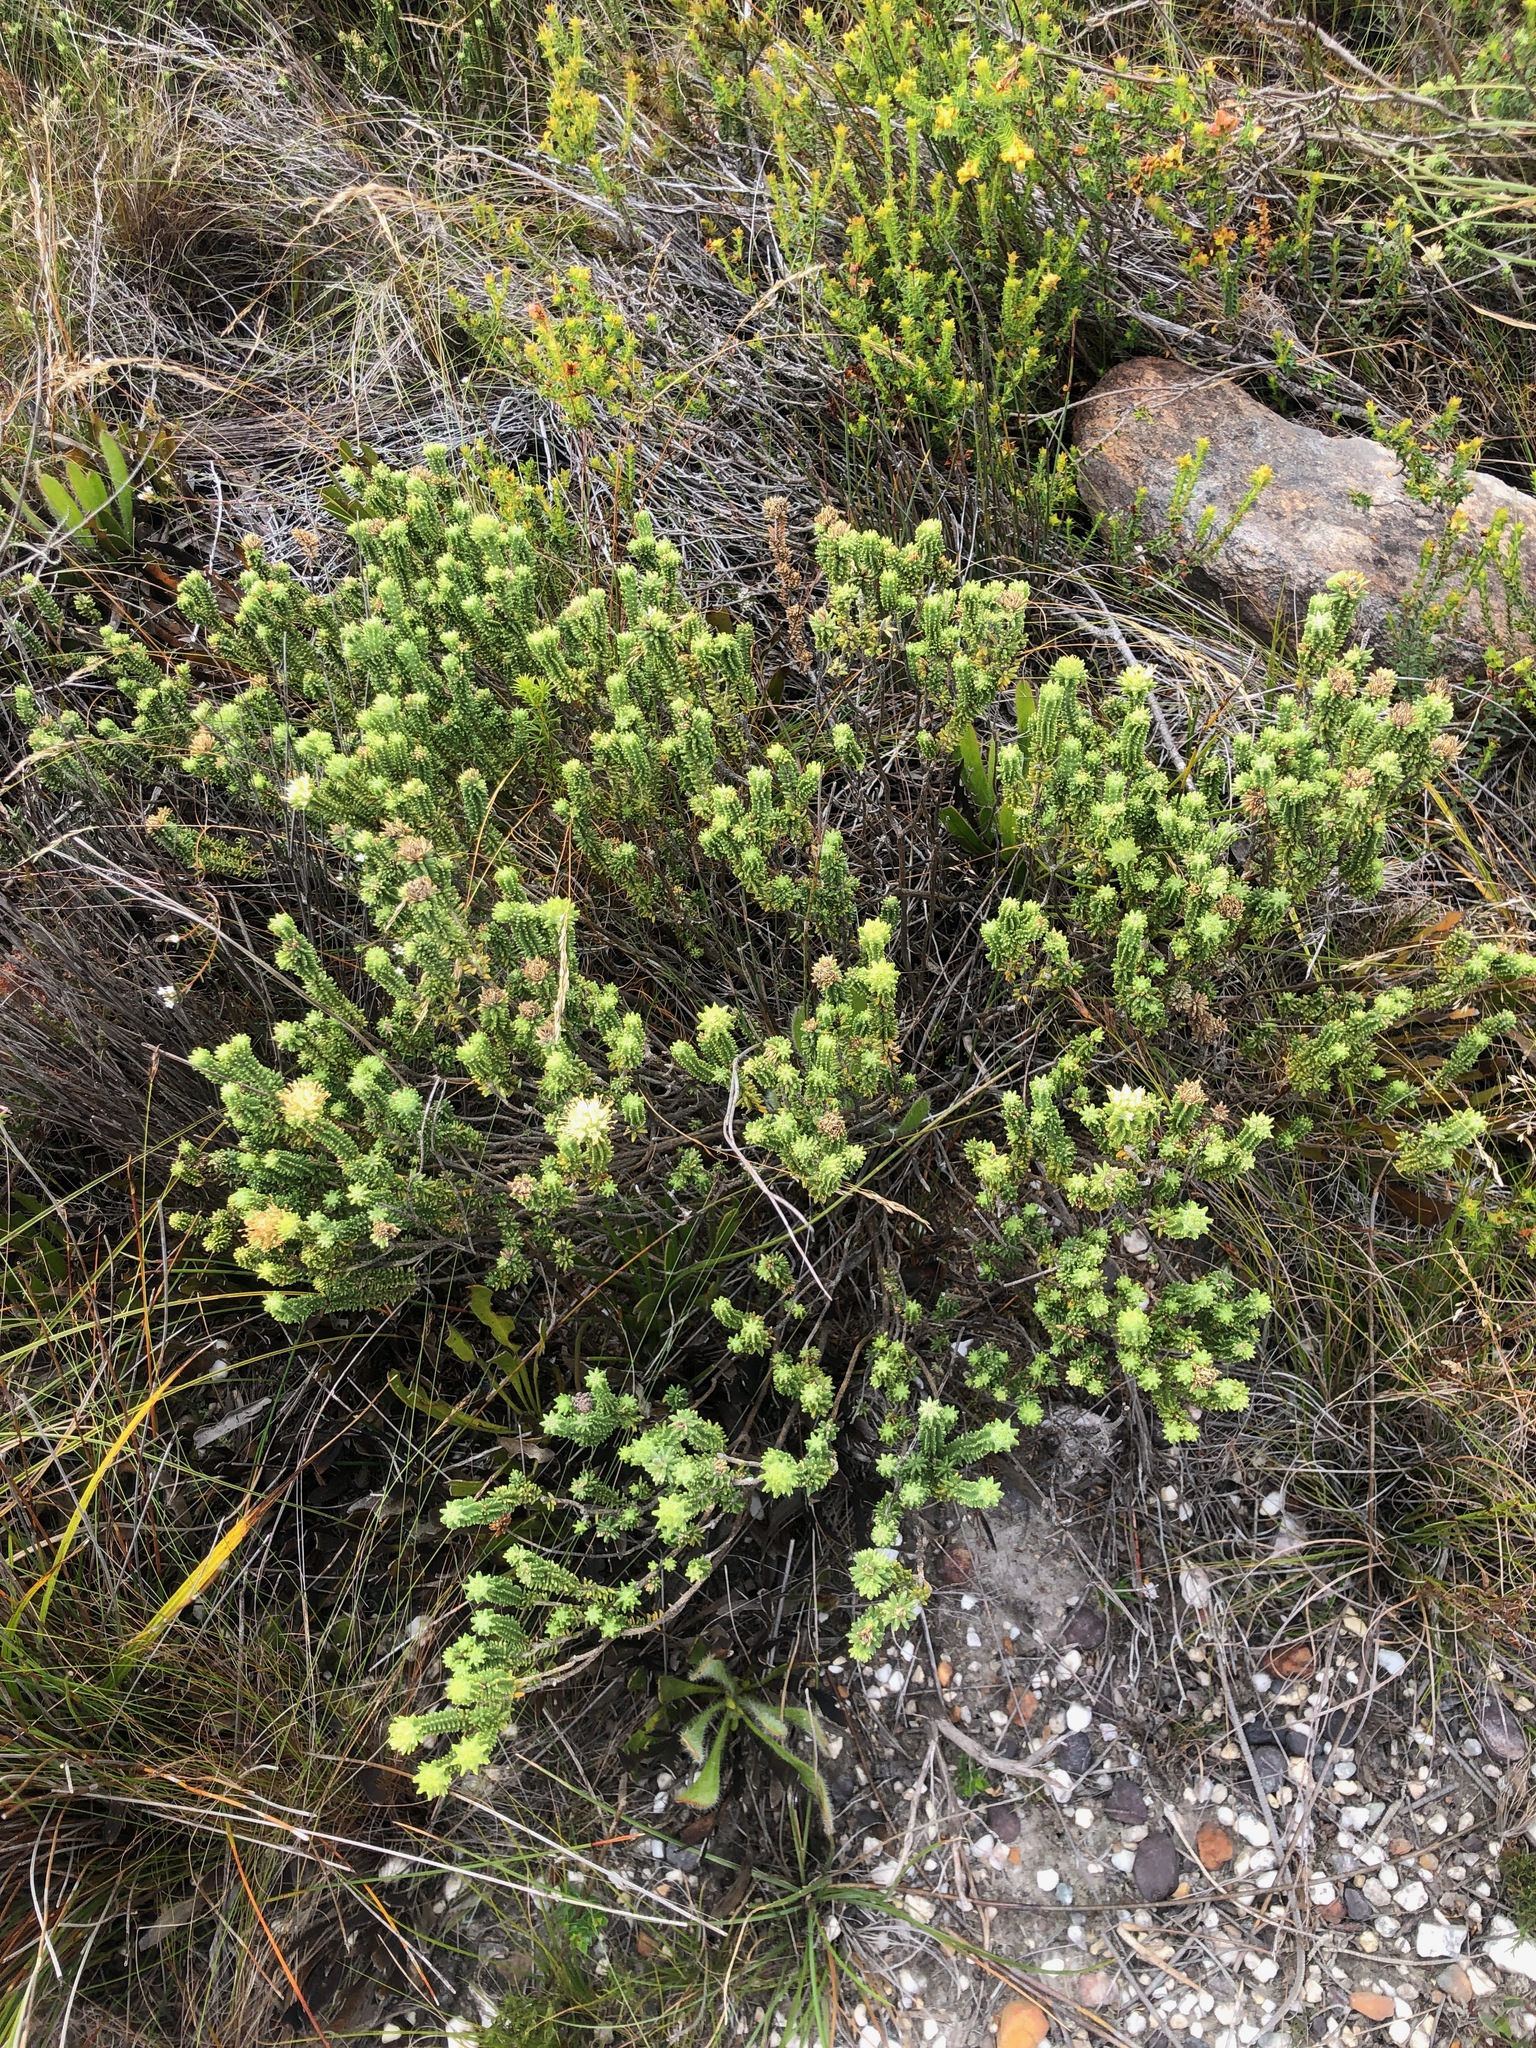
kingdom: Plantae
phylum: Tracheophyta
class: Magnoliopsida
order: Lamiales
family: Stilbaceae
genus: Campylostachys
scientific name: Campylostachys cernua
